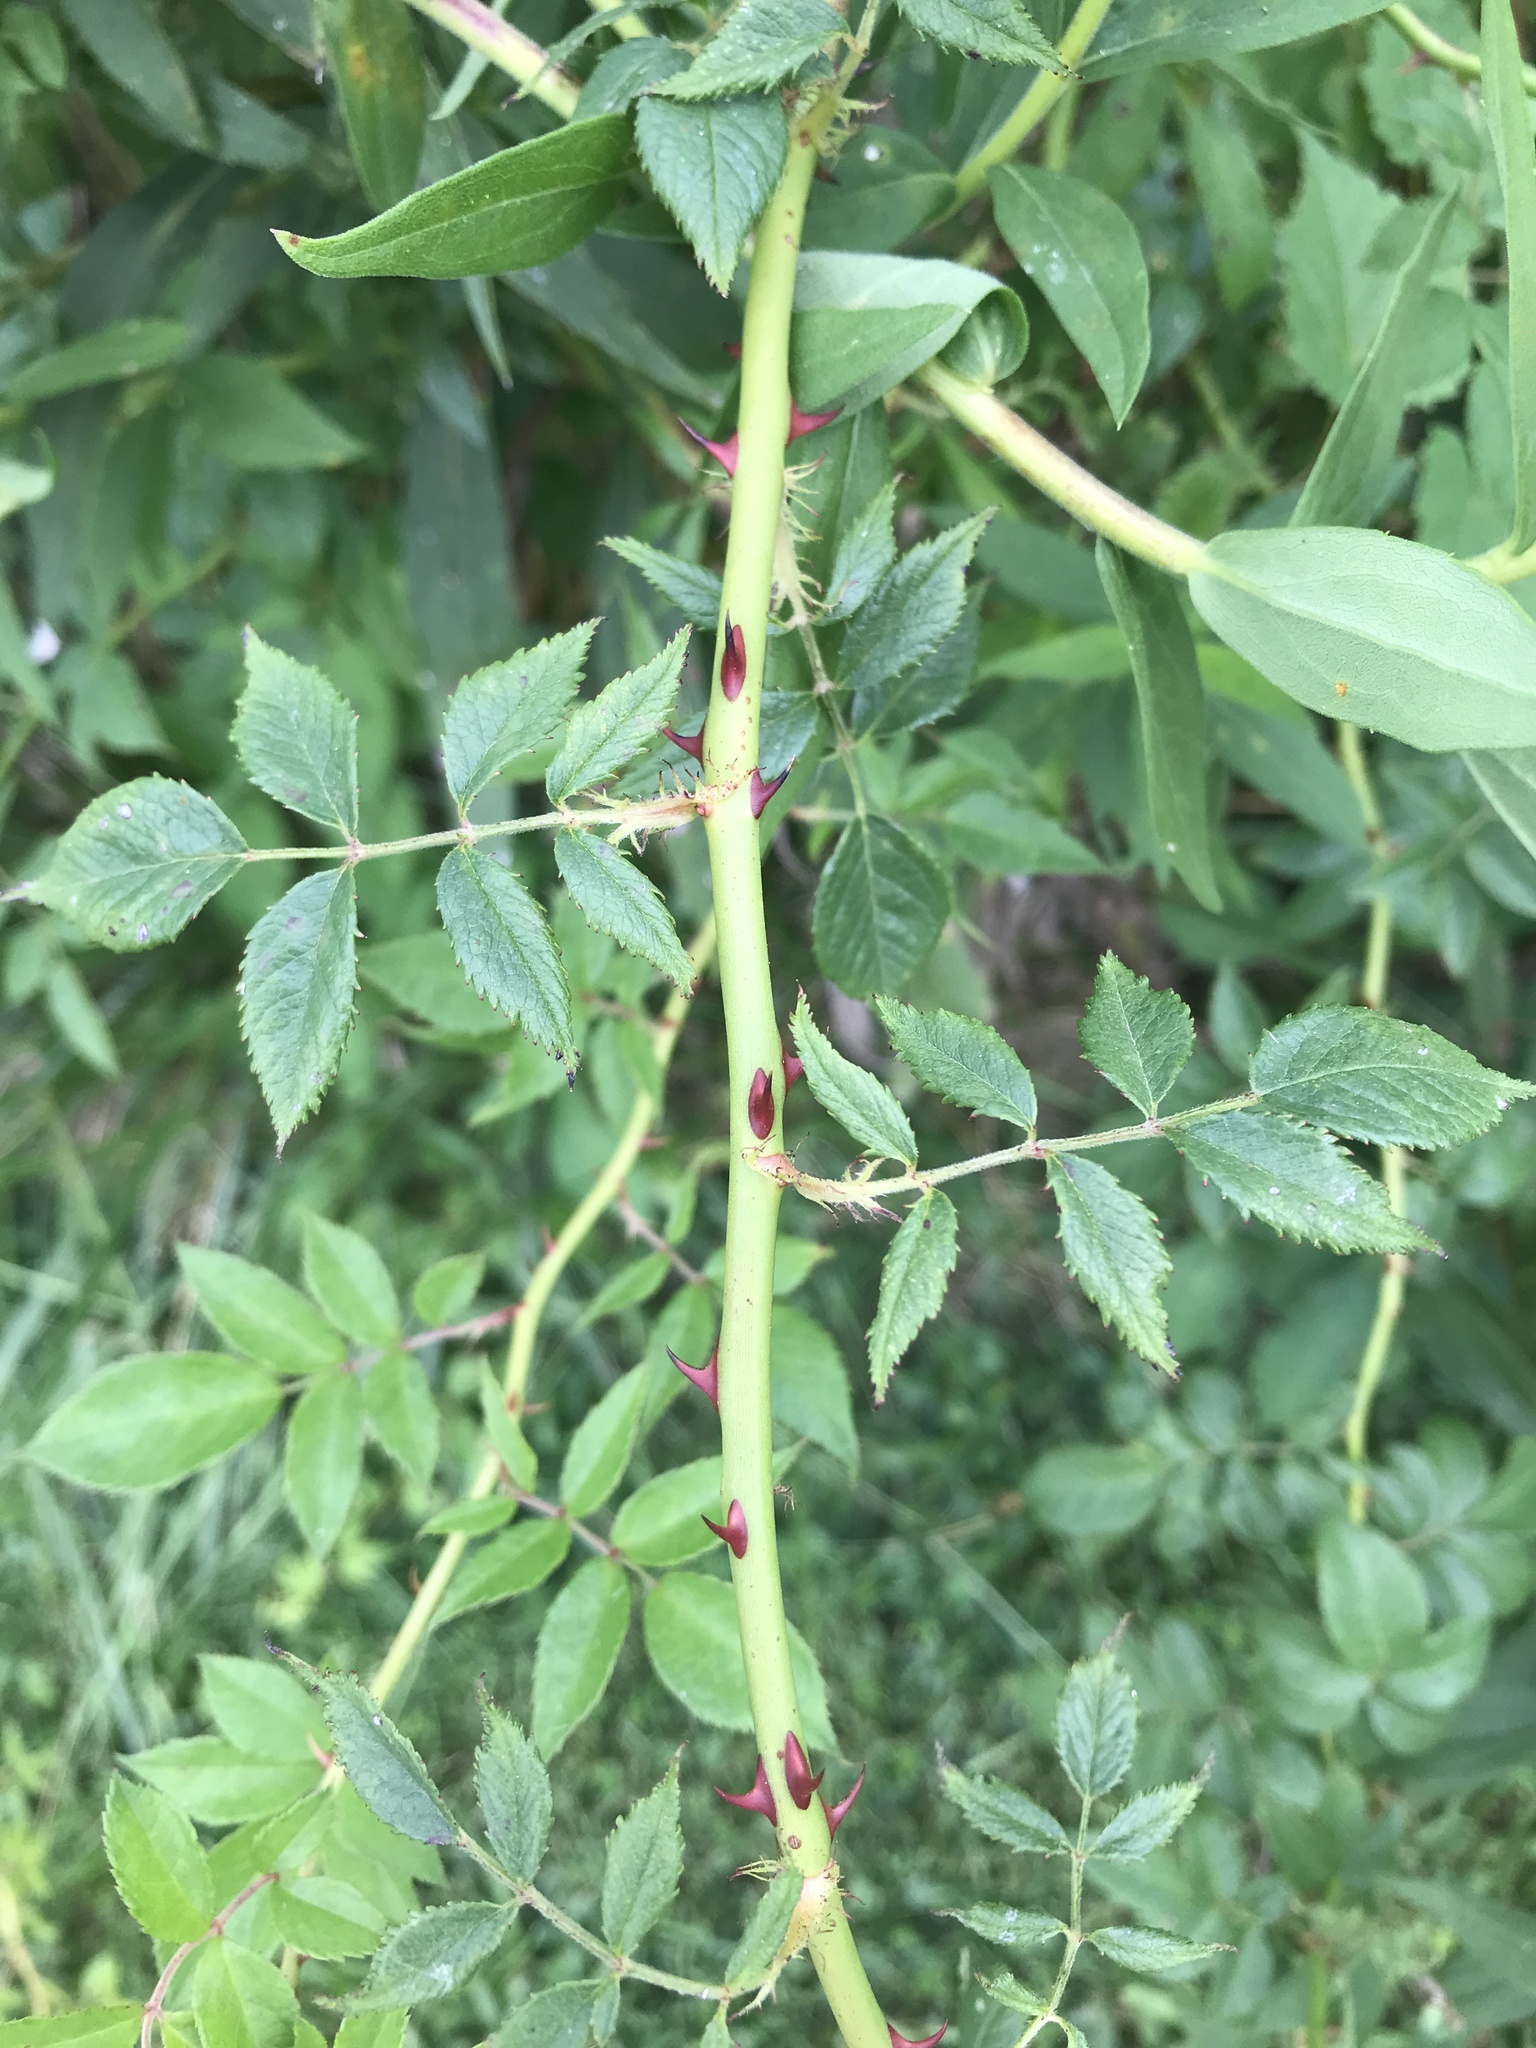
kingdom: Plantae
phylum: Tracheophyta
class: Magnoliopsida
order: Rosales
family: Rosaceae
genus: Rosa
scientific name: Rosa multiflora
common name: Multiflora rose
